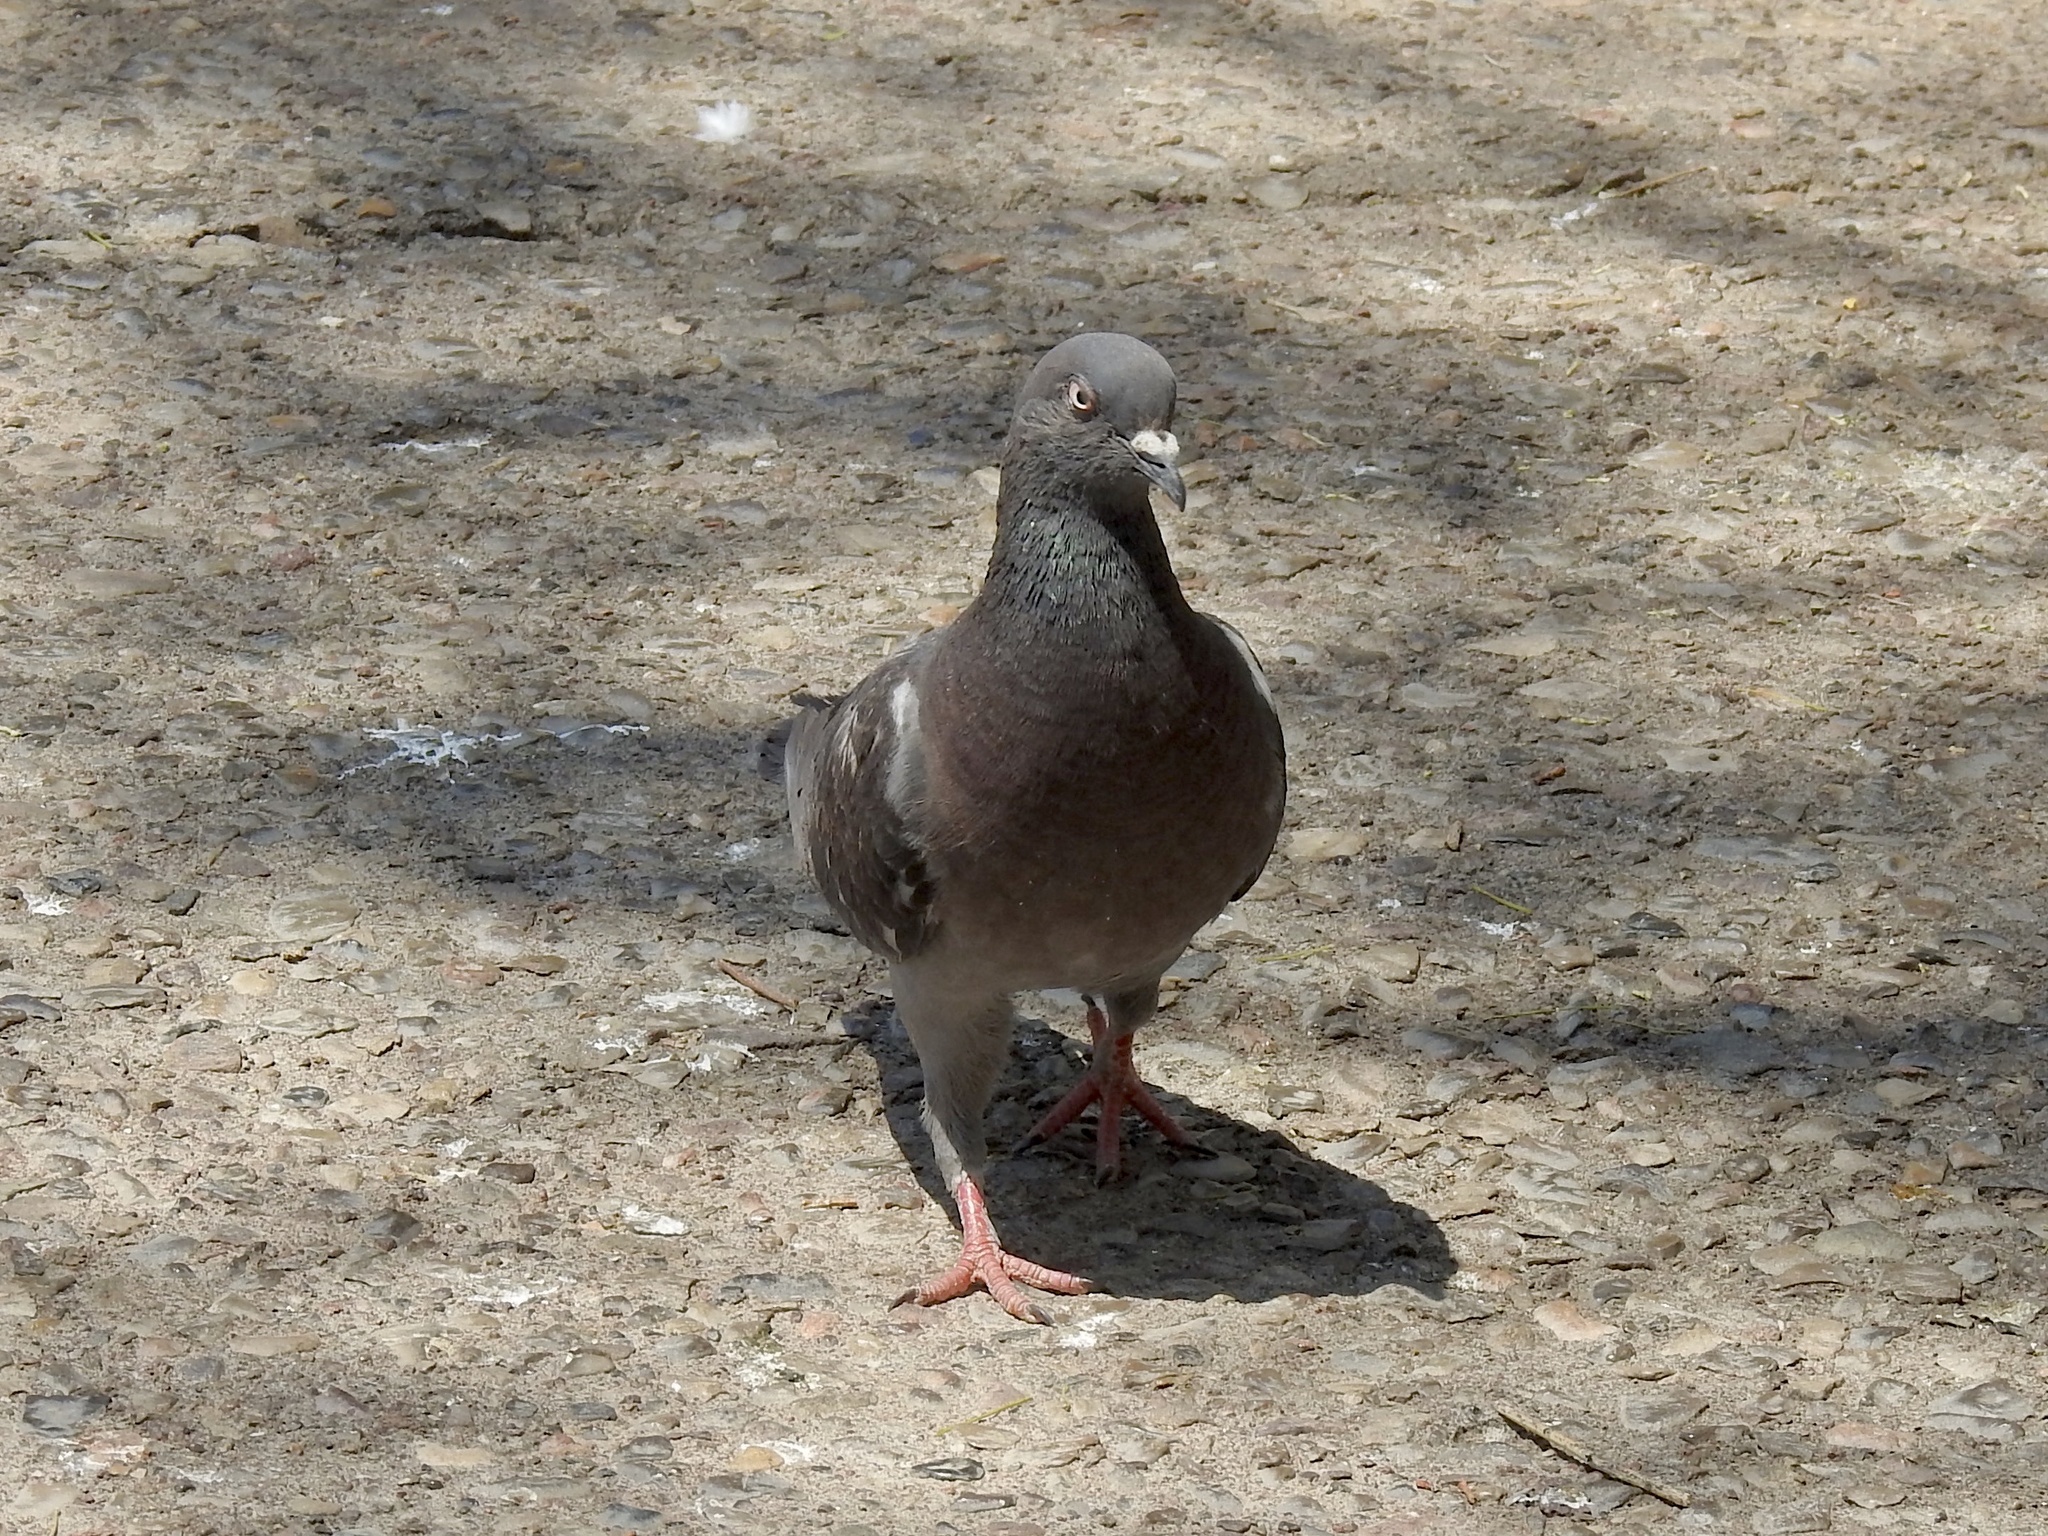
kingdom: Animalia
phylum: Chordata
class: Aves
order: Columbiformes
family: Columbidae
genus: Columba
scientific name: Columba livia
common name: Rock pigeon
